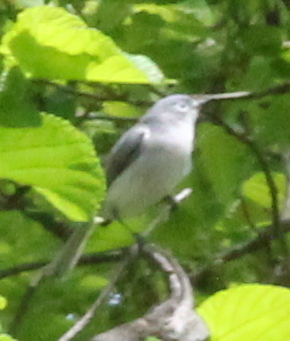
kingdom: Animalia
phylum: Chordata
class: Aves
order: Passeriformes
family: Polioptilidae
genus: Polioptila
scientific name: Polioptila caerulea
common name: Blue-gray gnatcatcher
